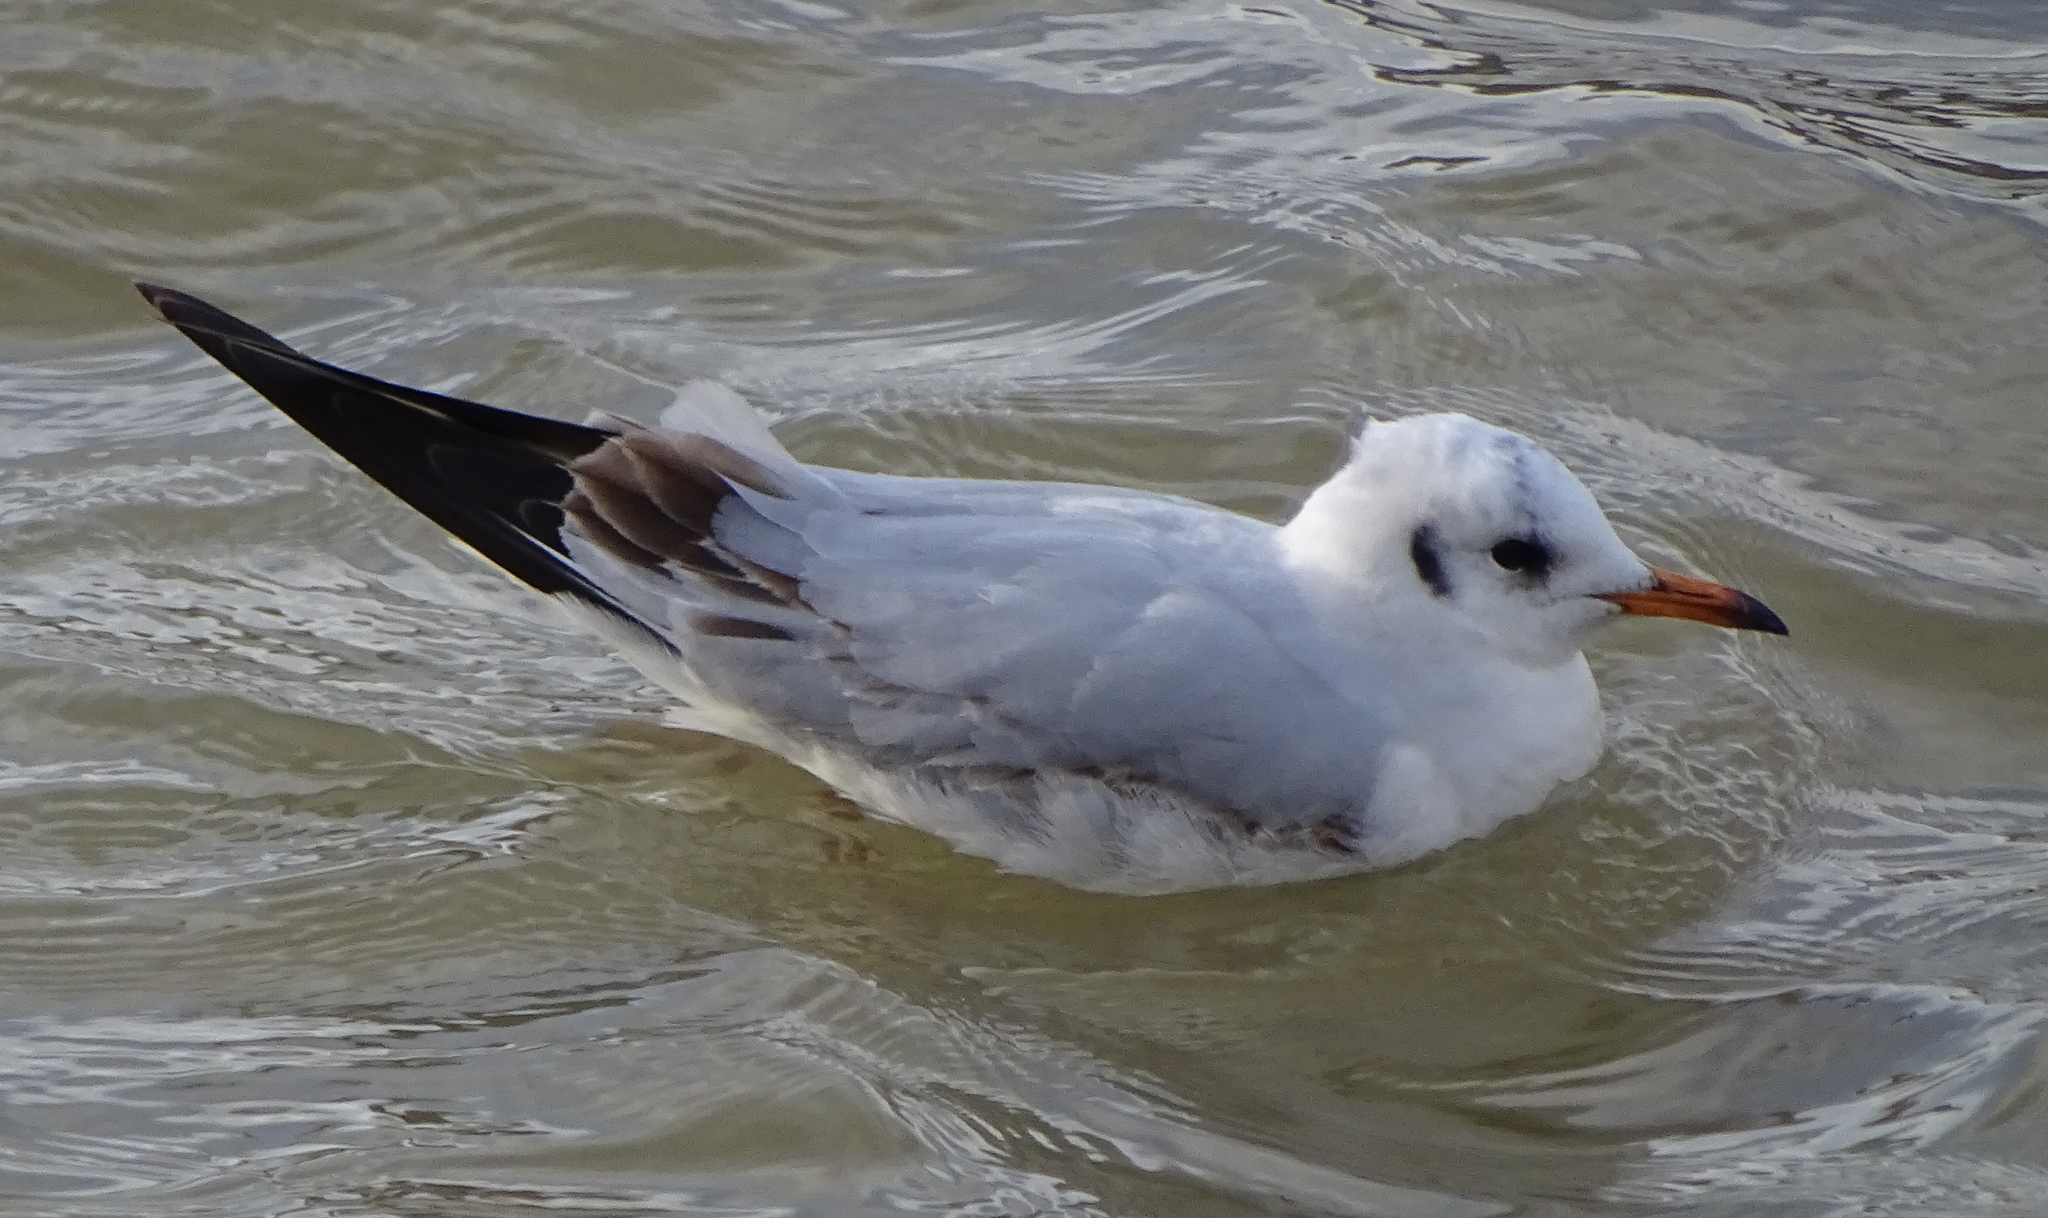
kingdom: Animalia
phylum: Chordata
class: Aves
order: Charadriiformes
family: Laridae
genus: Chroicocephalus
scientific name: Chroicocephalus ridibundus
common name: Black-headed gull
